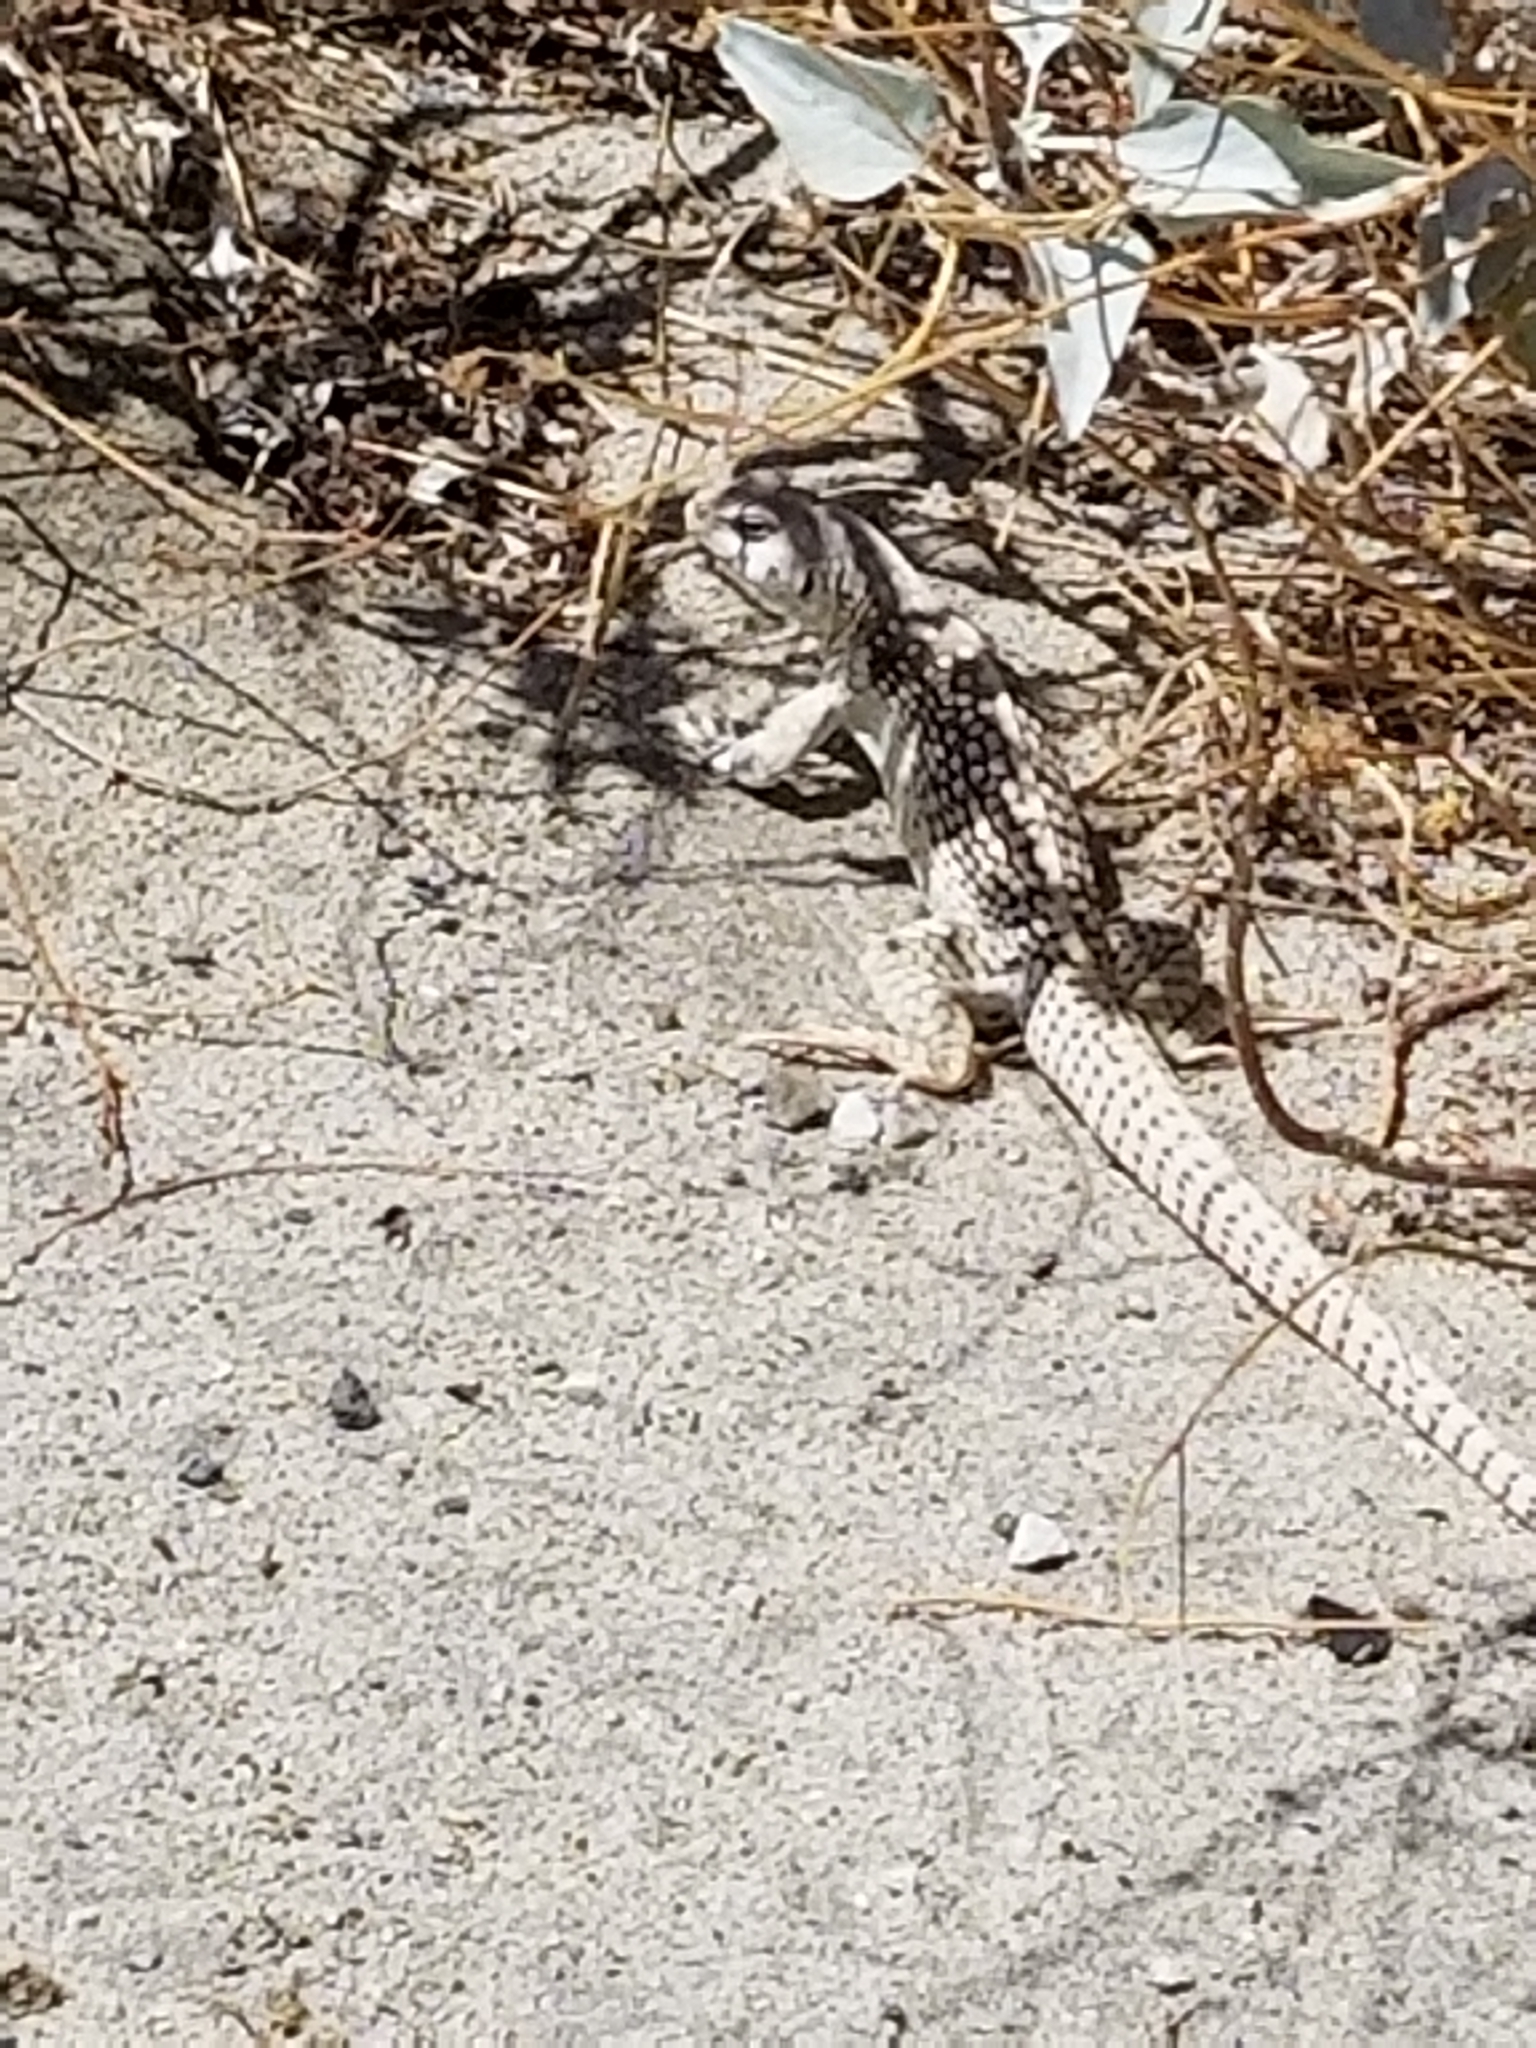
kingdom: Animalia
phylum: Chordata
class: Squamata
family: Iguanidae
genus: Dipsosaurus
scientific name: Dipsosaurus dorsalis
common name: Desert iguana
